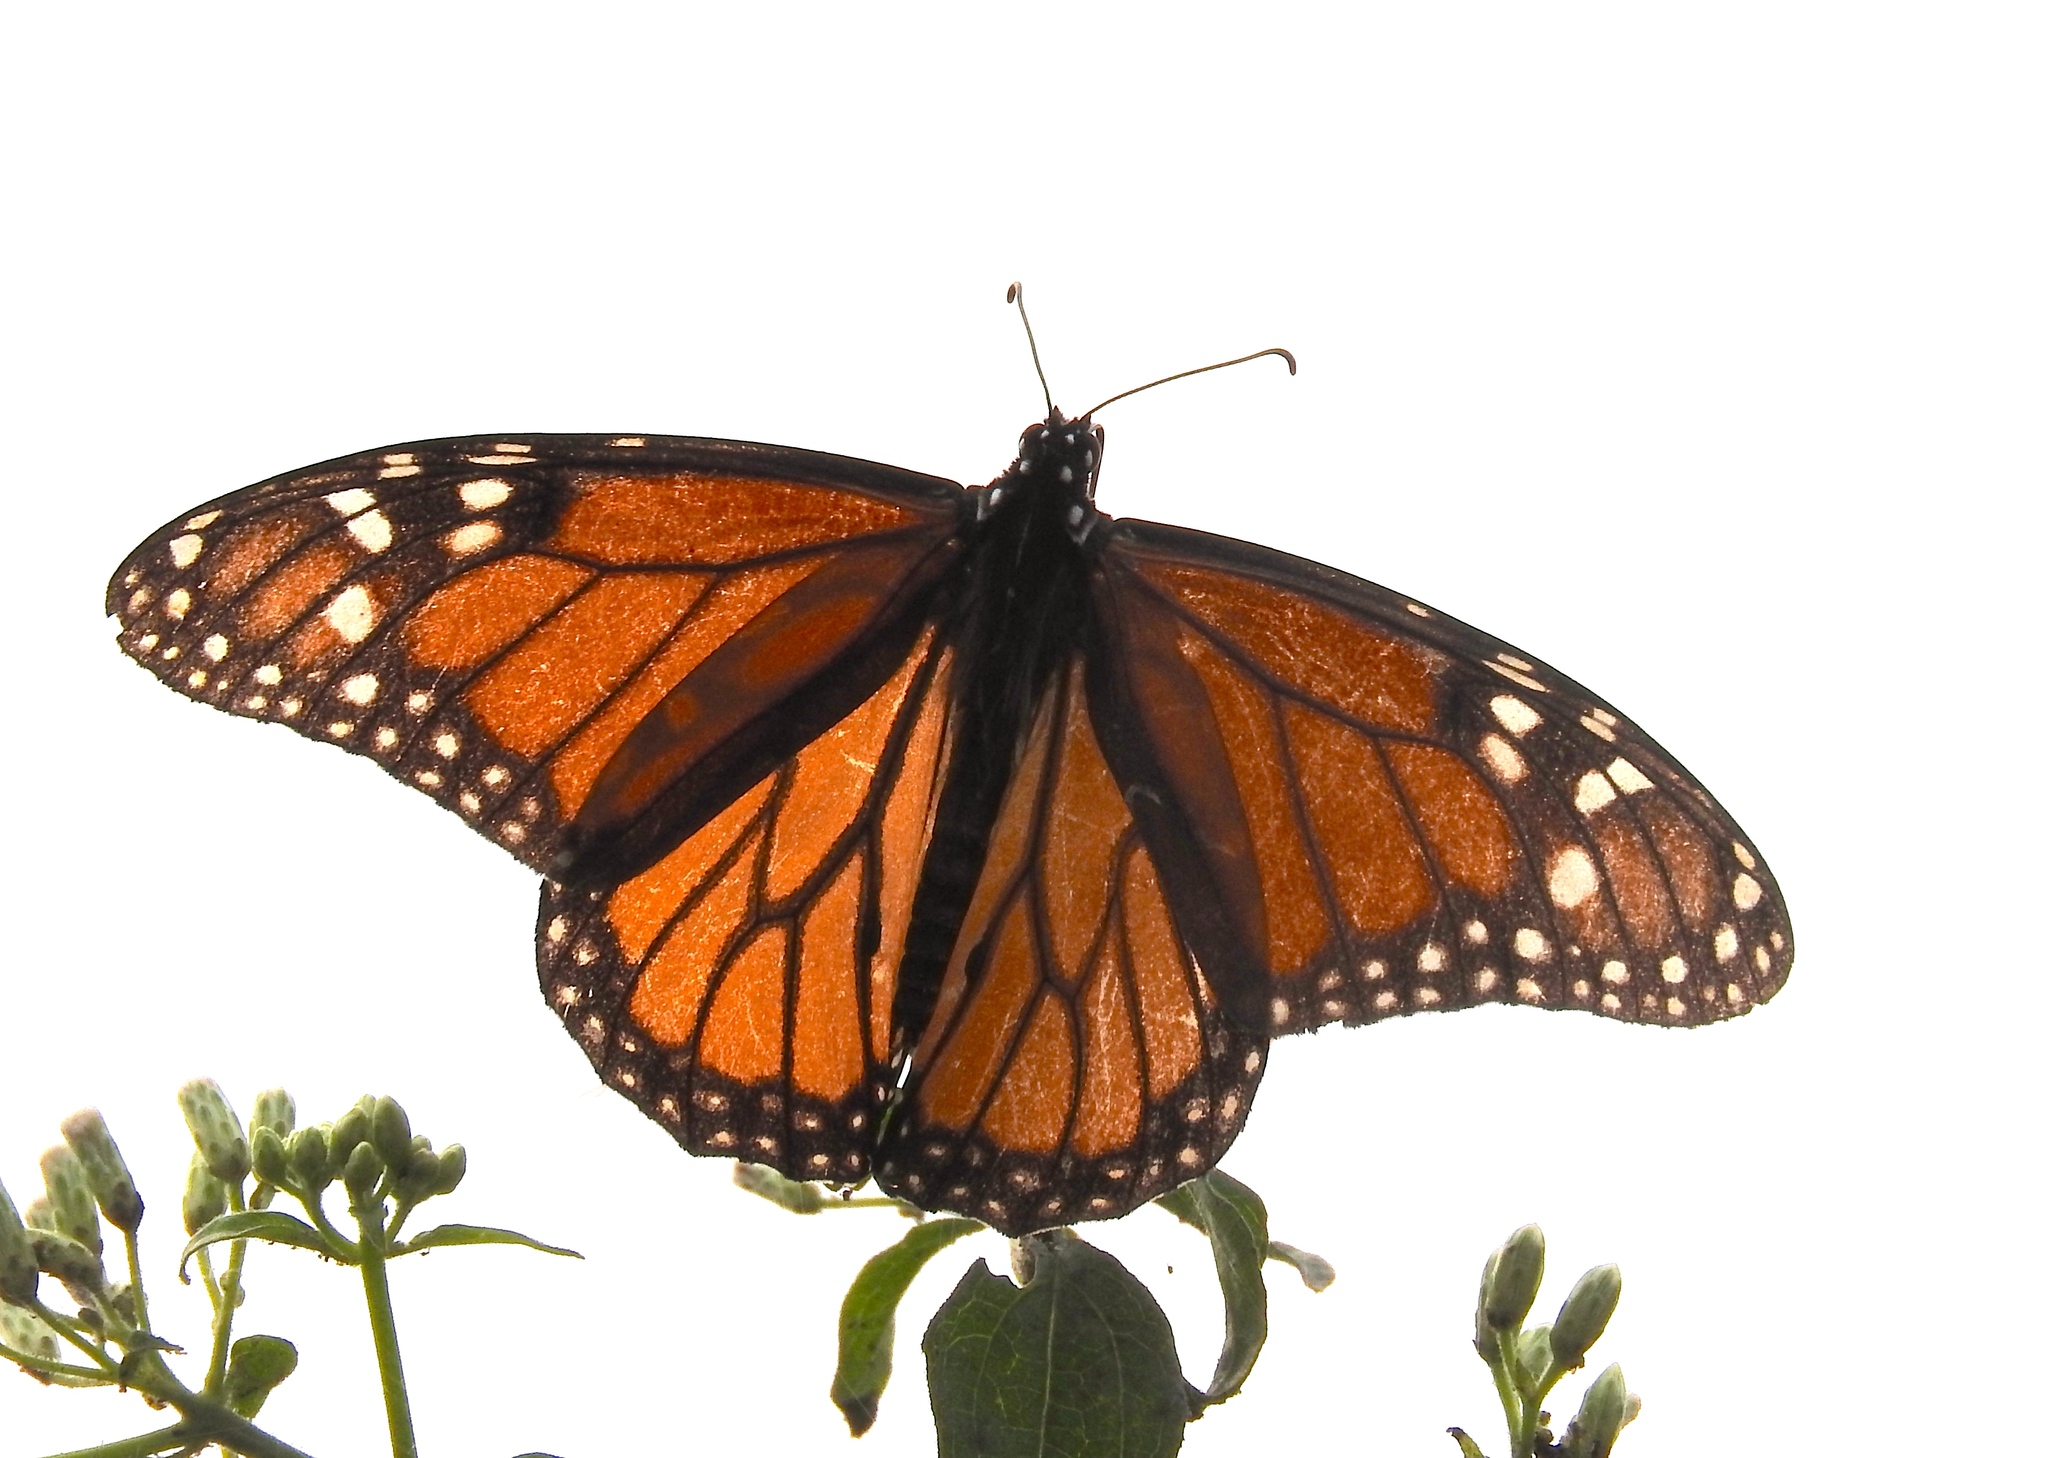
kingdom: Animalia
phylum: Arthropoda
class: Insecta
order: Lepidoptera
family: Nymphalidae
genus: Danaus
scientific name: Danaus plexippus
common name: Monarch
